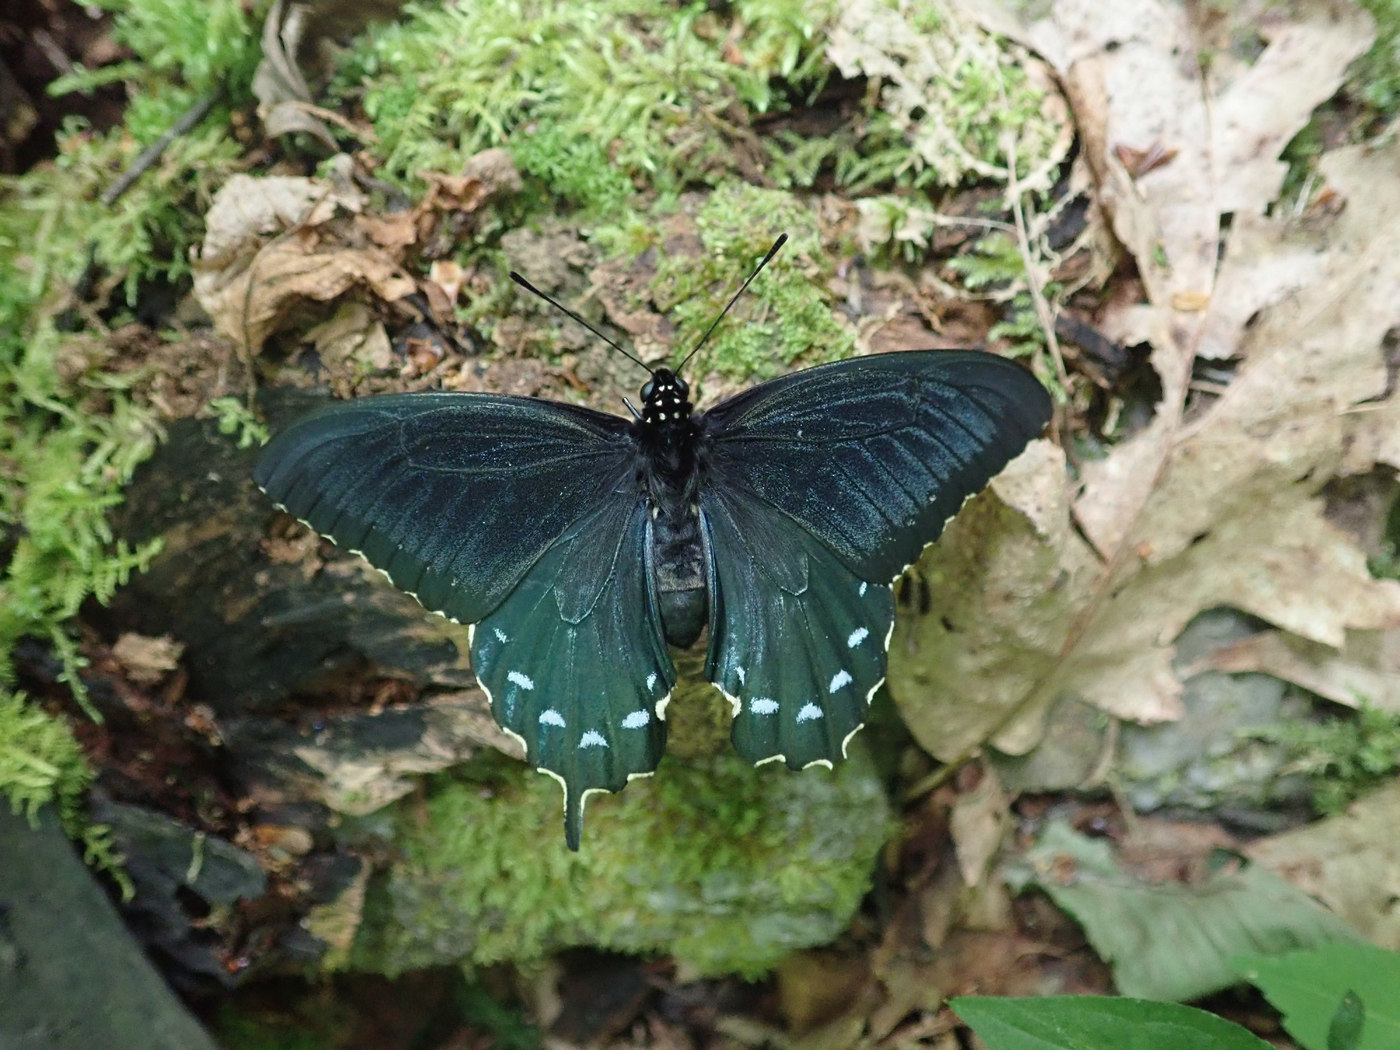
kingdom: Animalia
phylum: Arthropoda
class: Insecta
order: Lepidoptera
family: Papilionidae
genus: Battus
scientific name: Battus philenor
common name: Pipevine swallowtail
